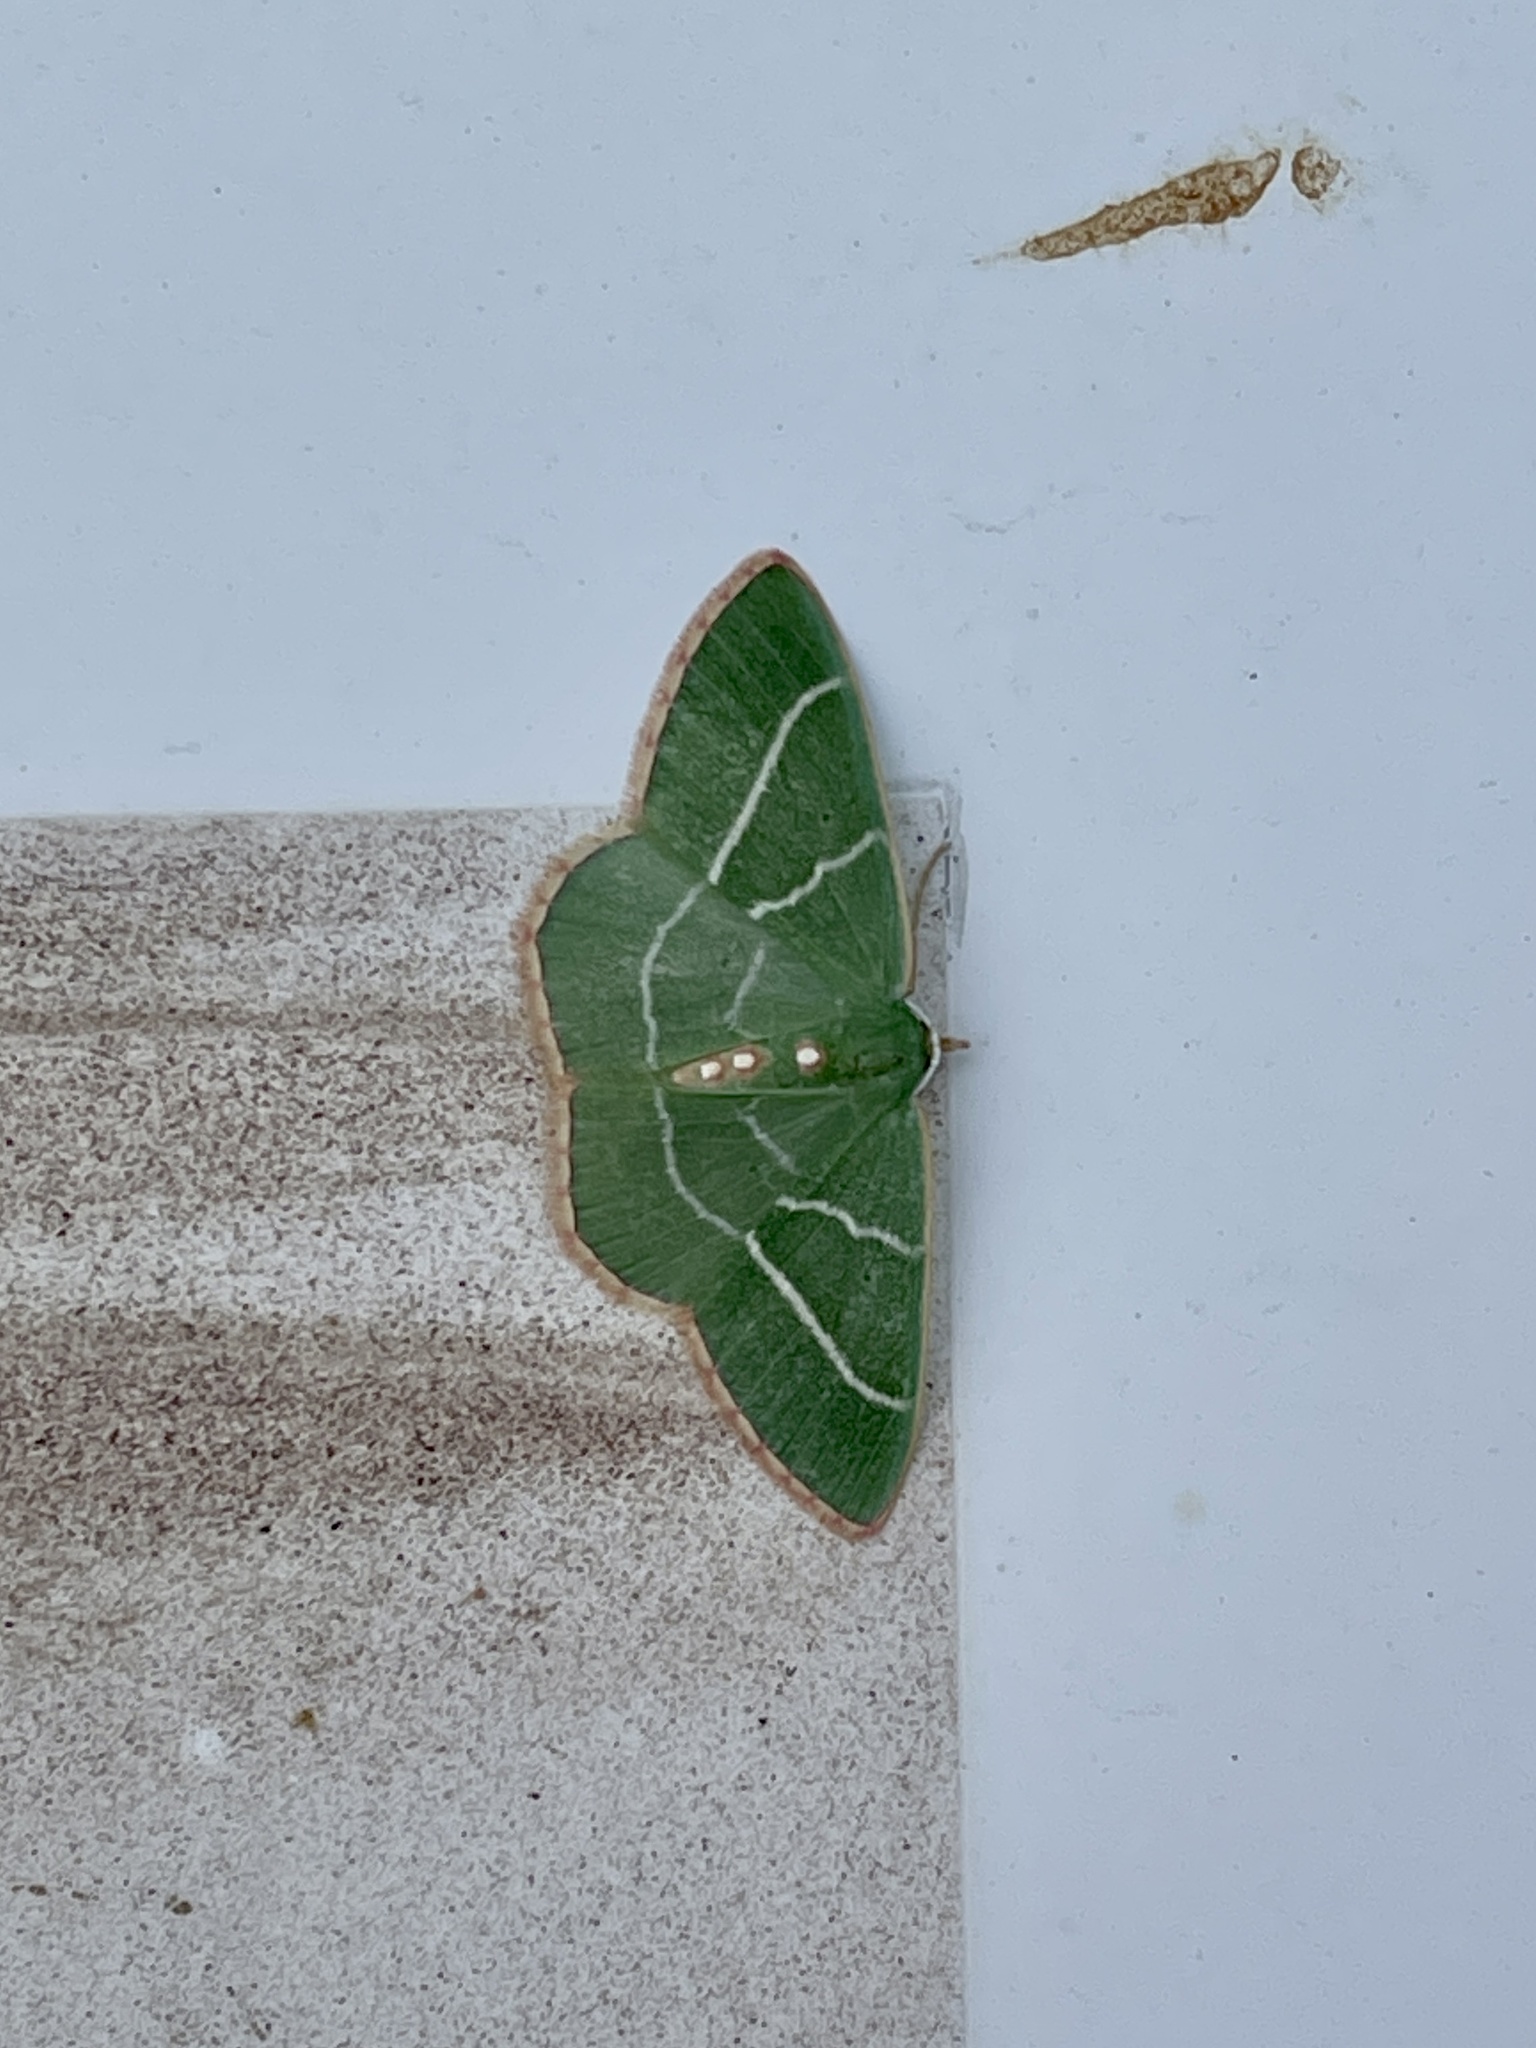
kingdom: Animalia
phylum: Arthropoda
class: Insecta
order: Lepidoptera
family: Geometridae
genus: Nemoria
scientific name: Nemoria obliqua
